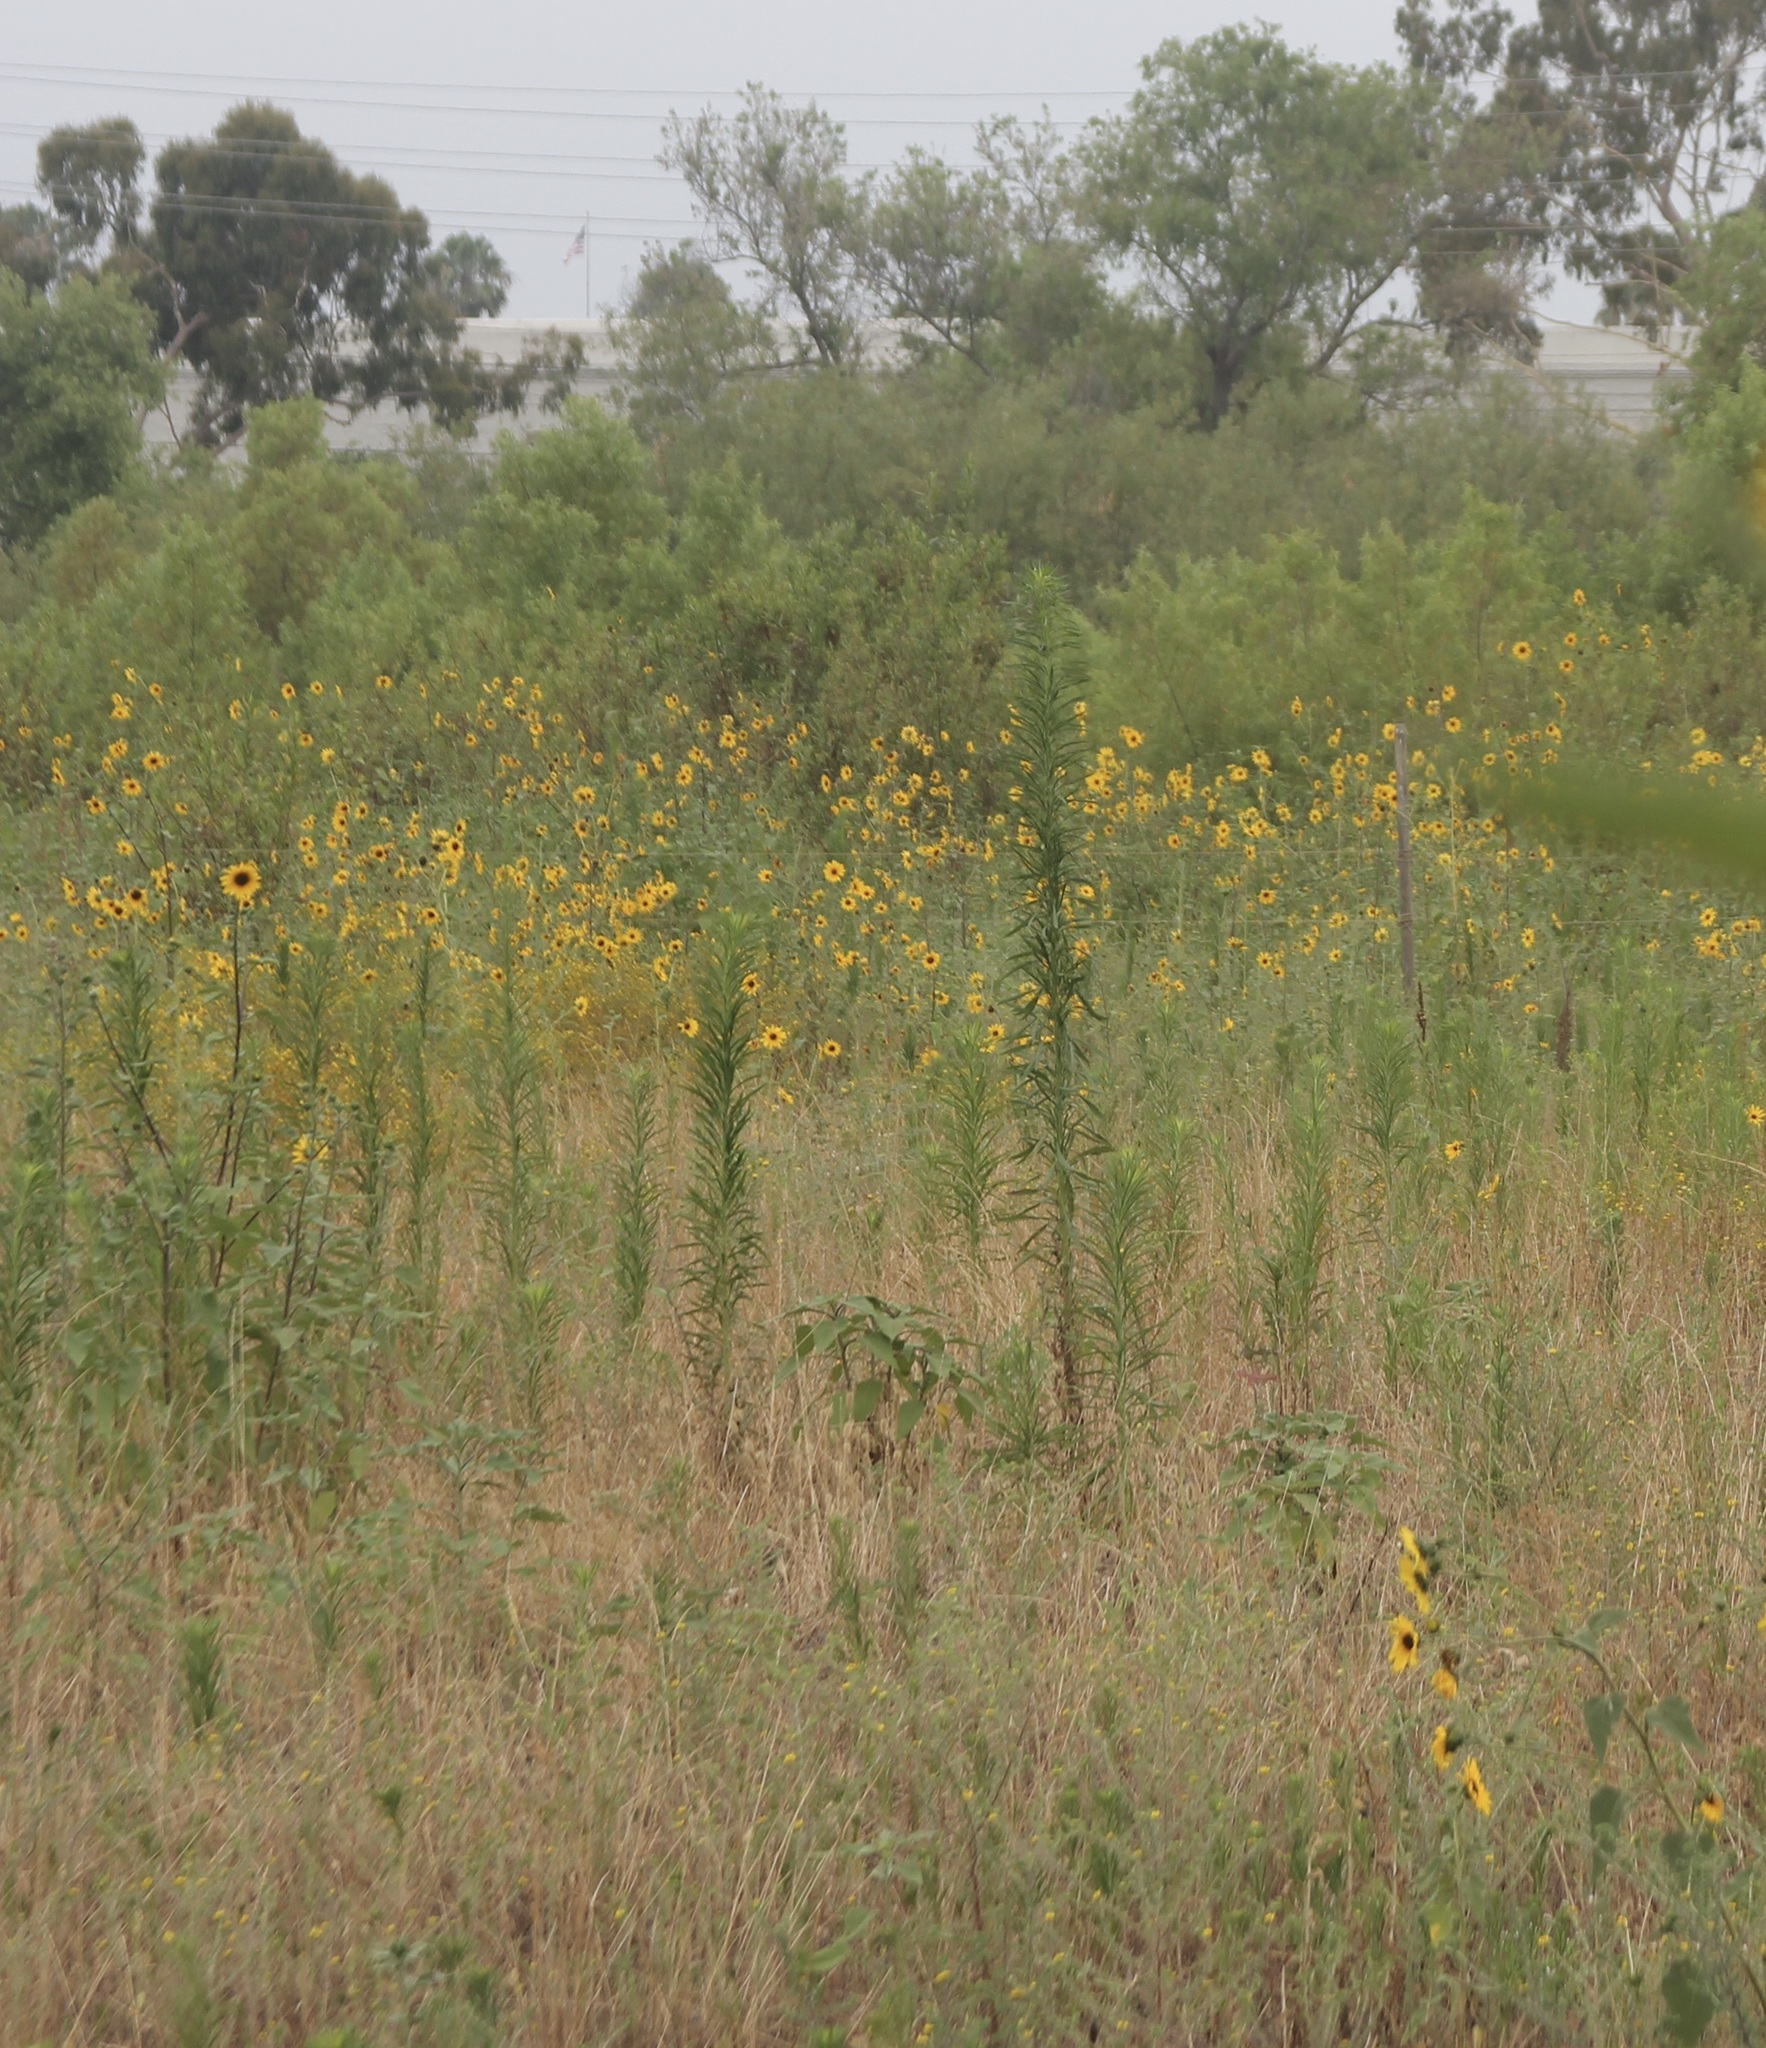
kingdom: Plantae
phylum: Tracheophyta
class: Magnoliopsida
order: Asterales
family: Asteraceae
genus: Helianthus
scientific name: Helianthus annuus
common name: Sunflower
